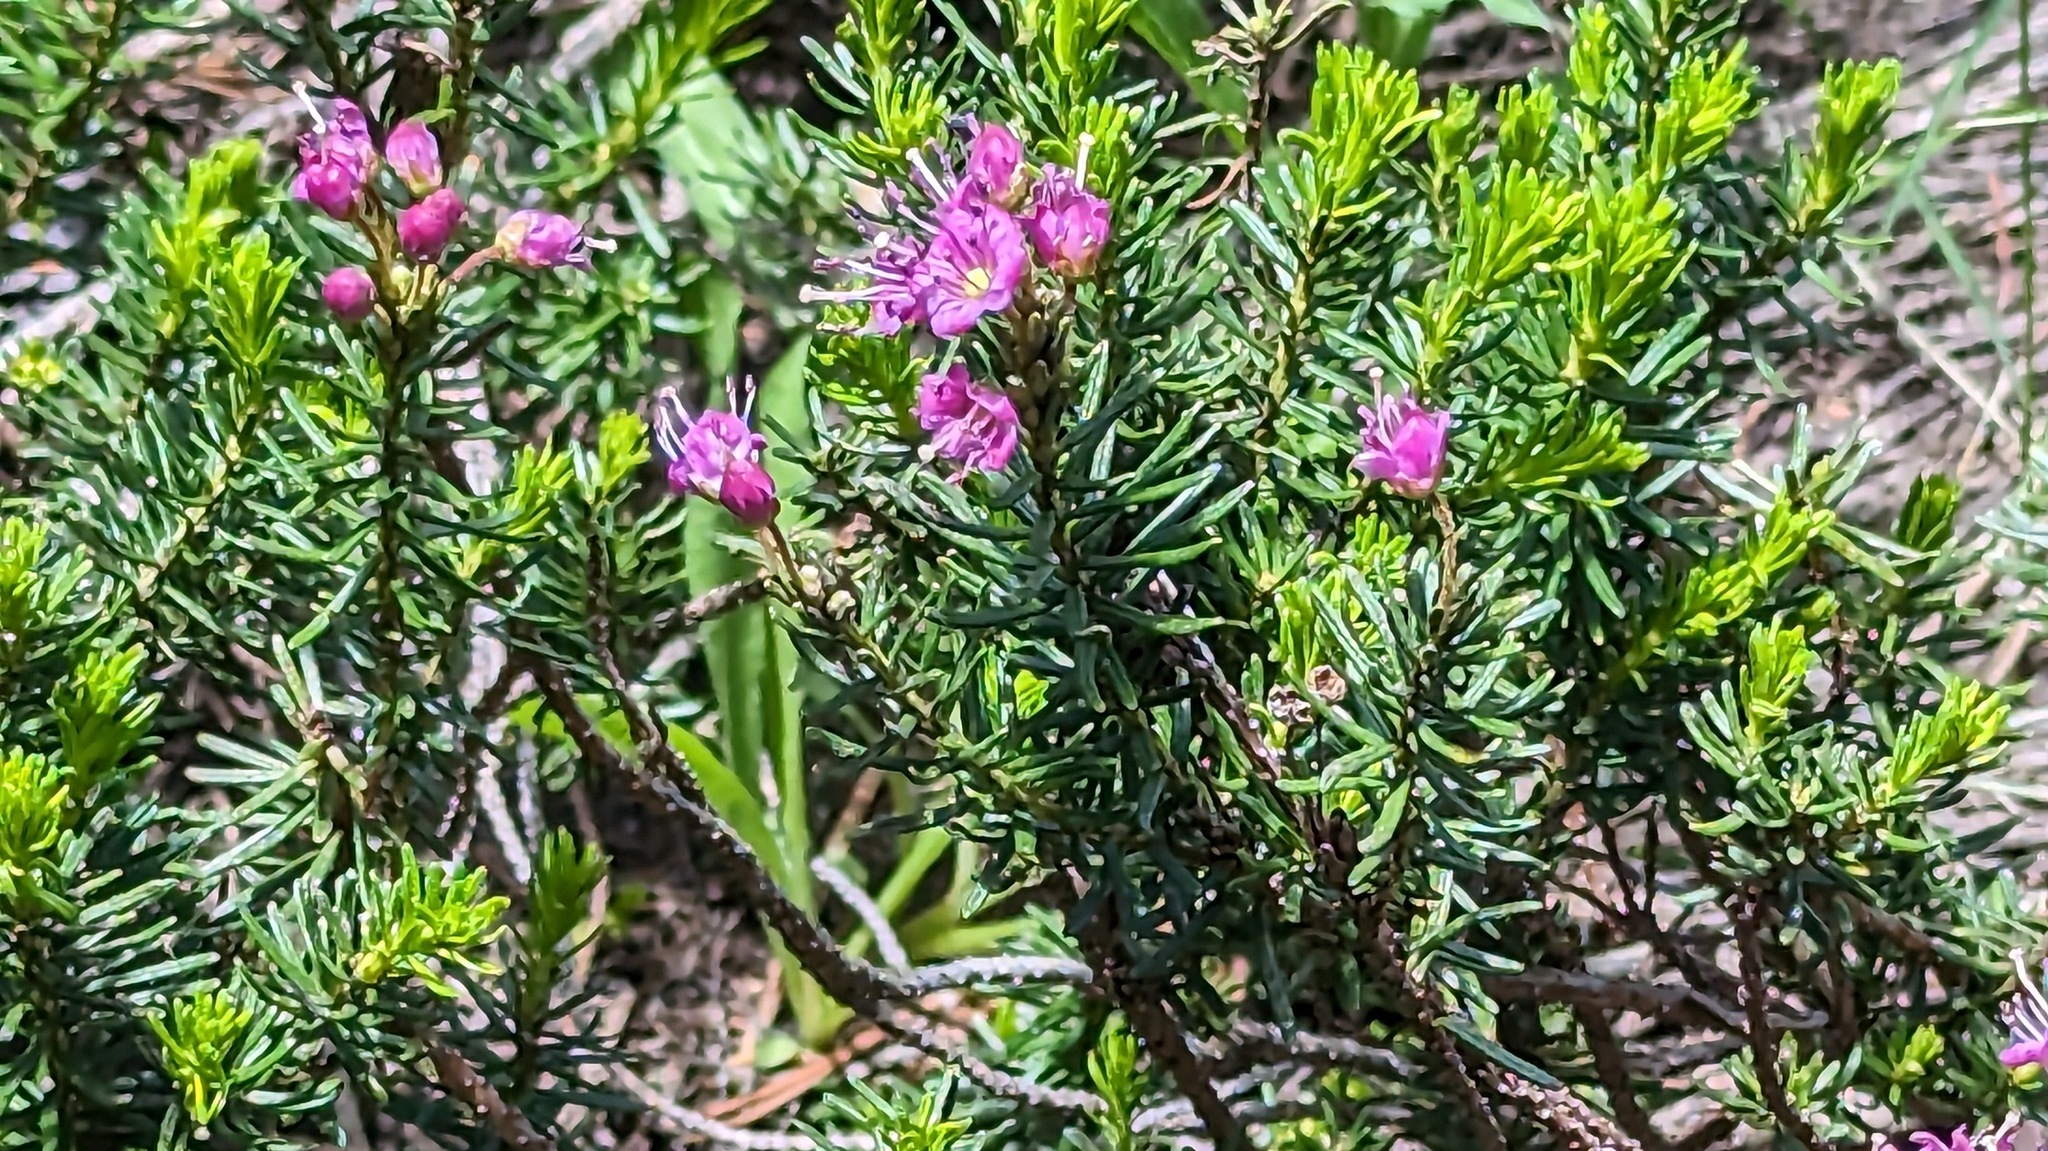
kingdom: Plantae
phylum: Tracheophyta
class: Magnoliopsida
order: Ericales
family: Ericaceae
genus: Phyllodoce
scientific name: Phyllodoce breweri
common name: Brewer's mountain-heather
